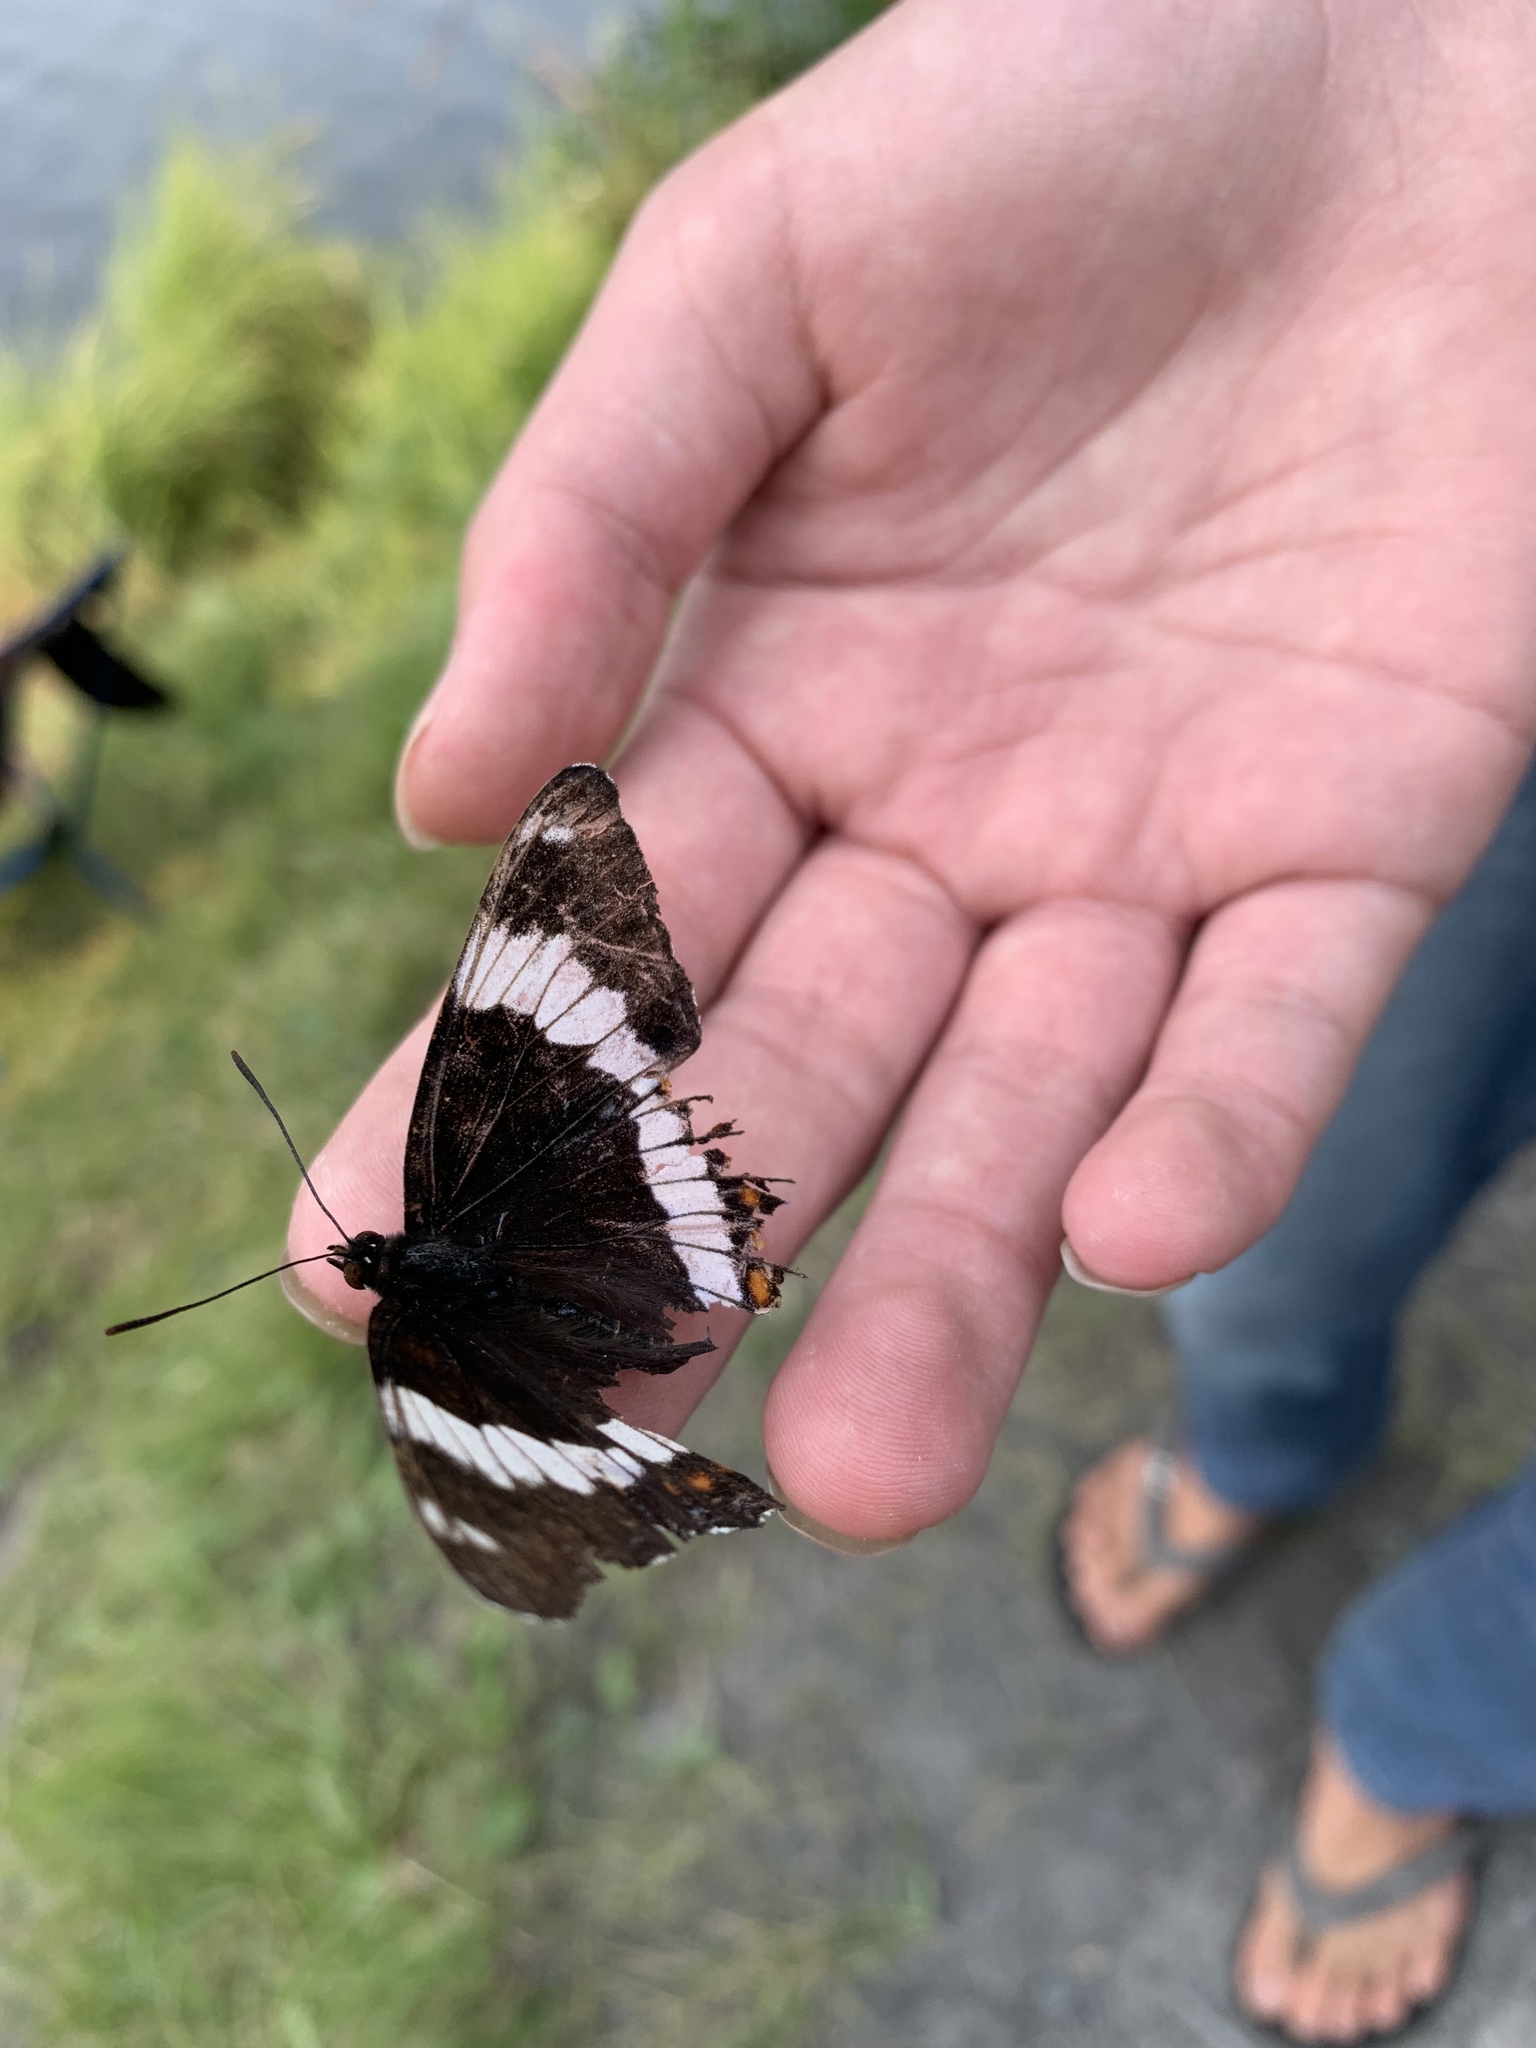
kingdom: Animalia
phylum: Arthropoda
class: Insecta
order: Lepidoptera
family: Nymphalidae
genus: Limenitis
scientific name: Limenitis arthemis
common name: Red-spotted admiral
